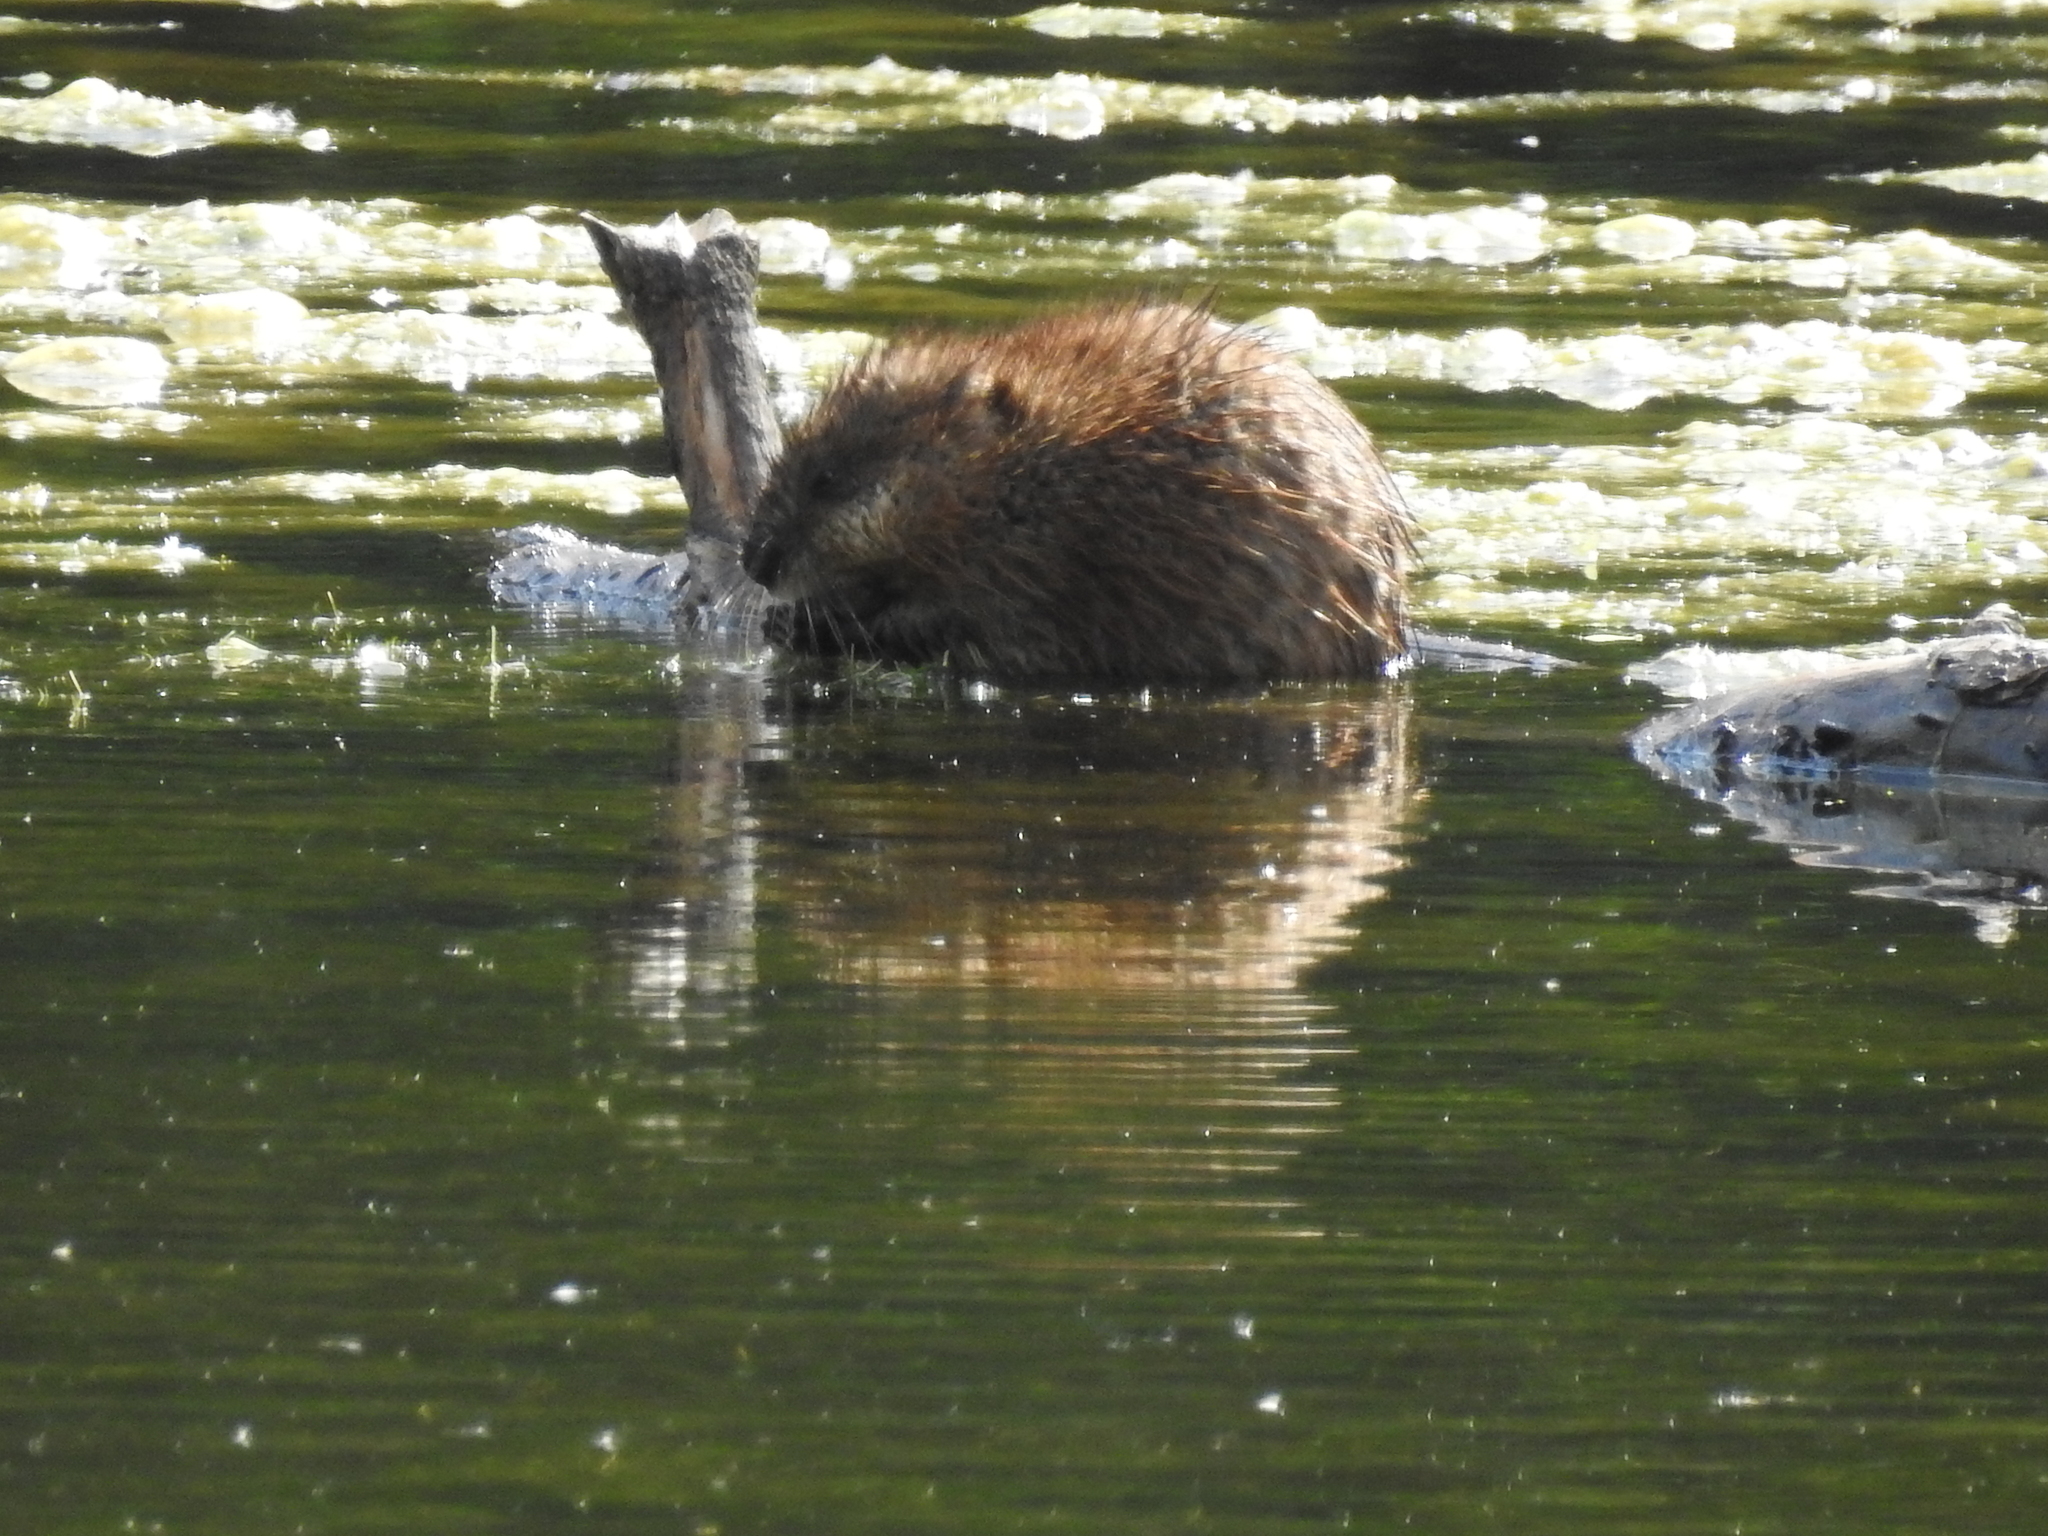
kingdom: Animalia
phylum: Chordata
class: Mammalia
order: Rodentia
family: Cricetidae
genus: Ondatra
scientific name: Ondatra zibethicus
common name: Muskrat
